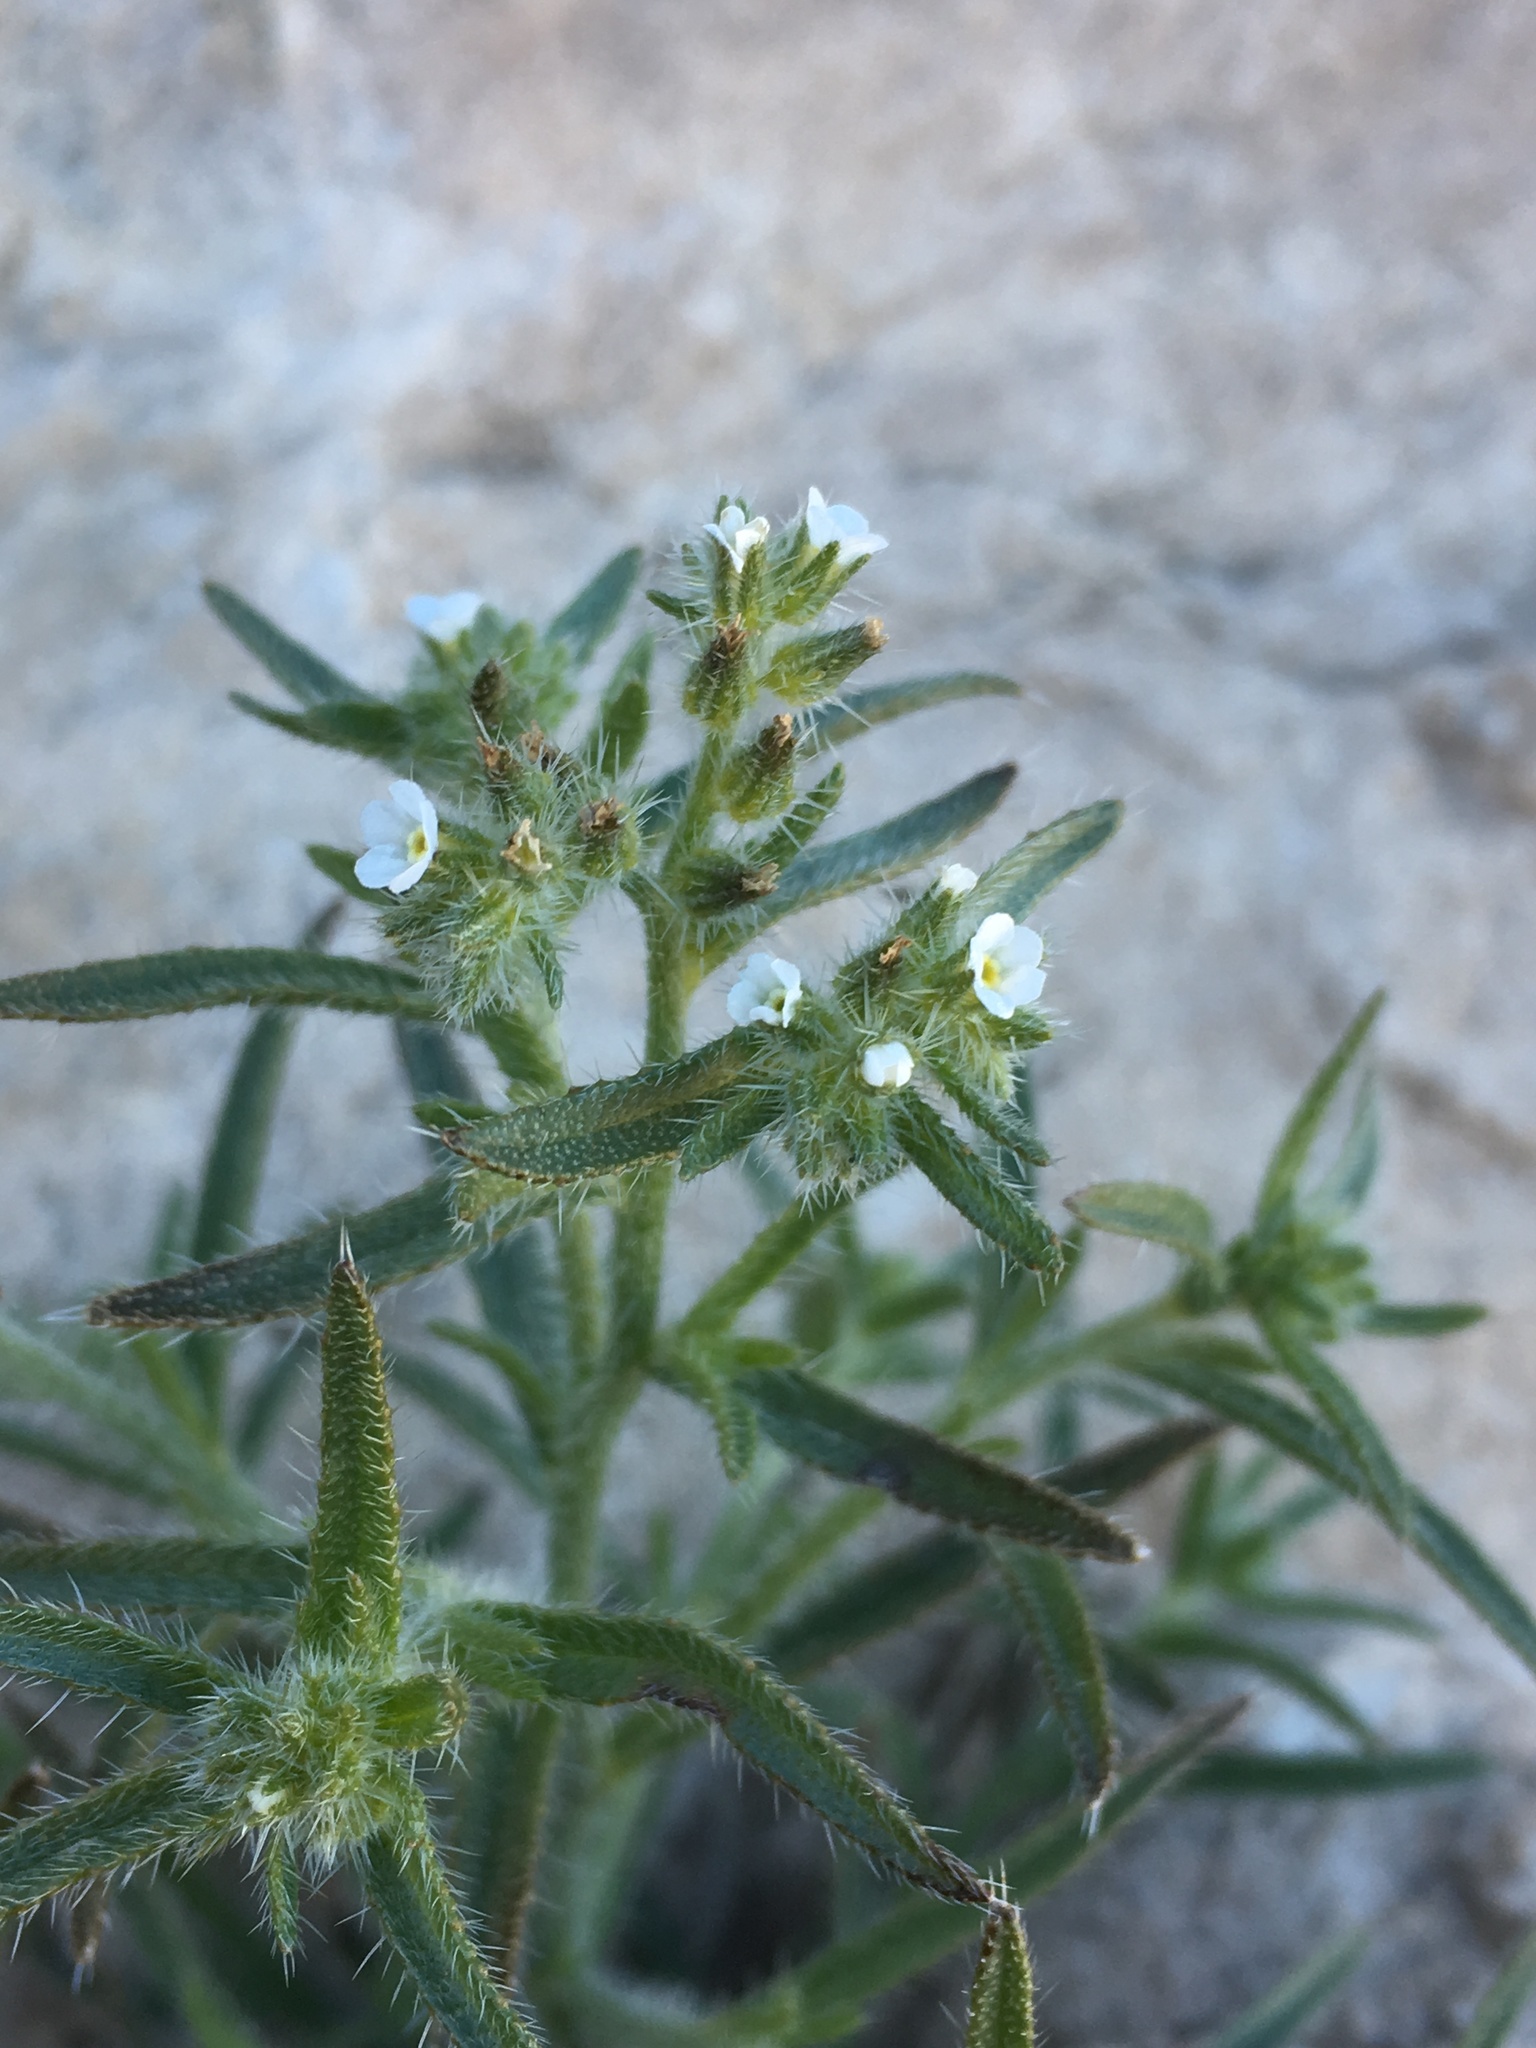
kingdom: Plantae
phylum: Tracheophyta
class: Magnoliopsida
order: Boraginales
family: Boraginaceae
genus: Johnstonella
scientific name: Johnstonella inaequata
